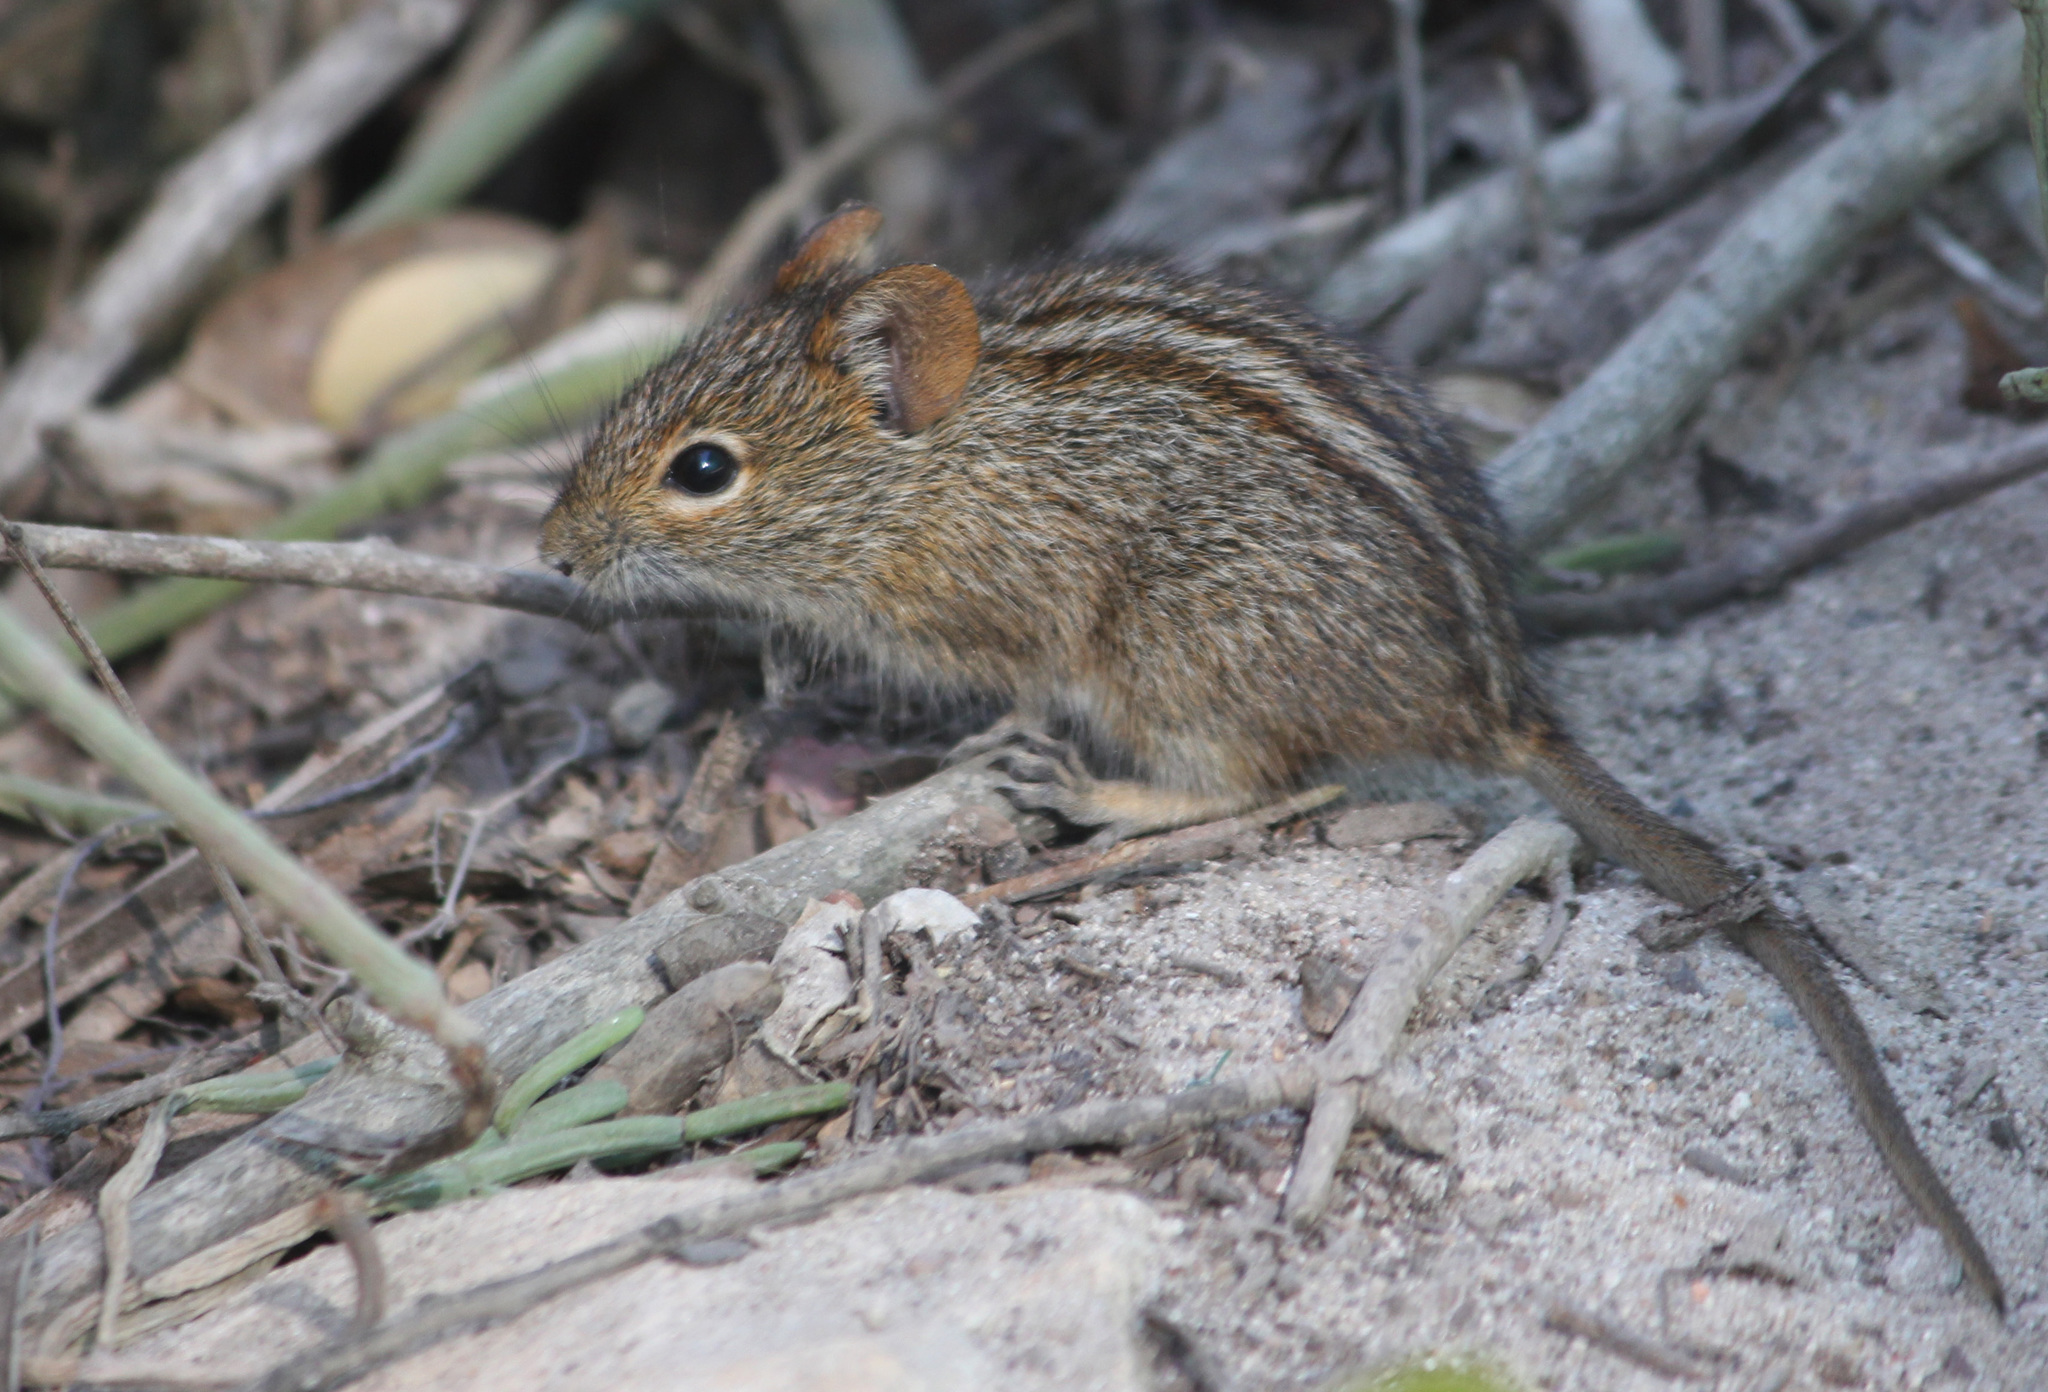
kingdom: Animalia
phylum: Chordata
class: Mammalia
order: Rodentia
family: Muridae
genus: Rhabdomys
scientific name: Rhabdomys pumilio
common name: Xeric four-striped grass rat
